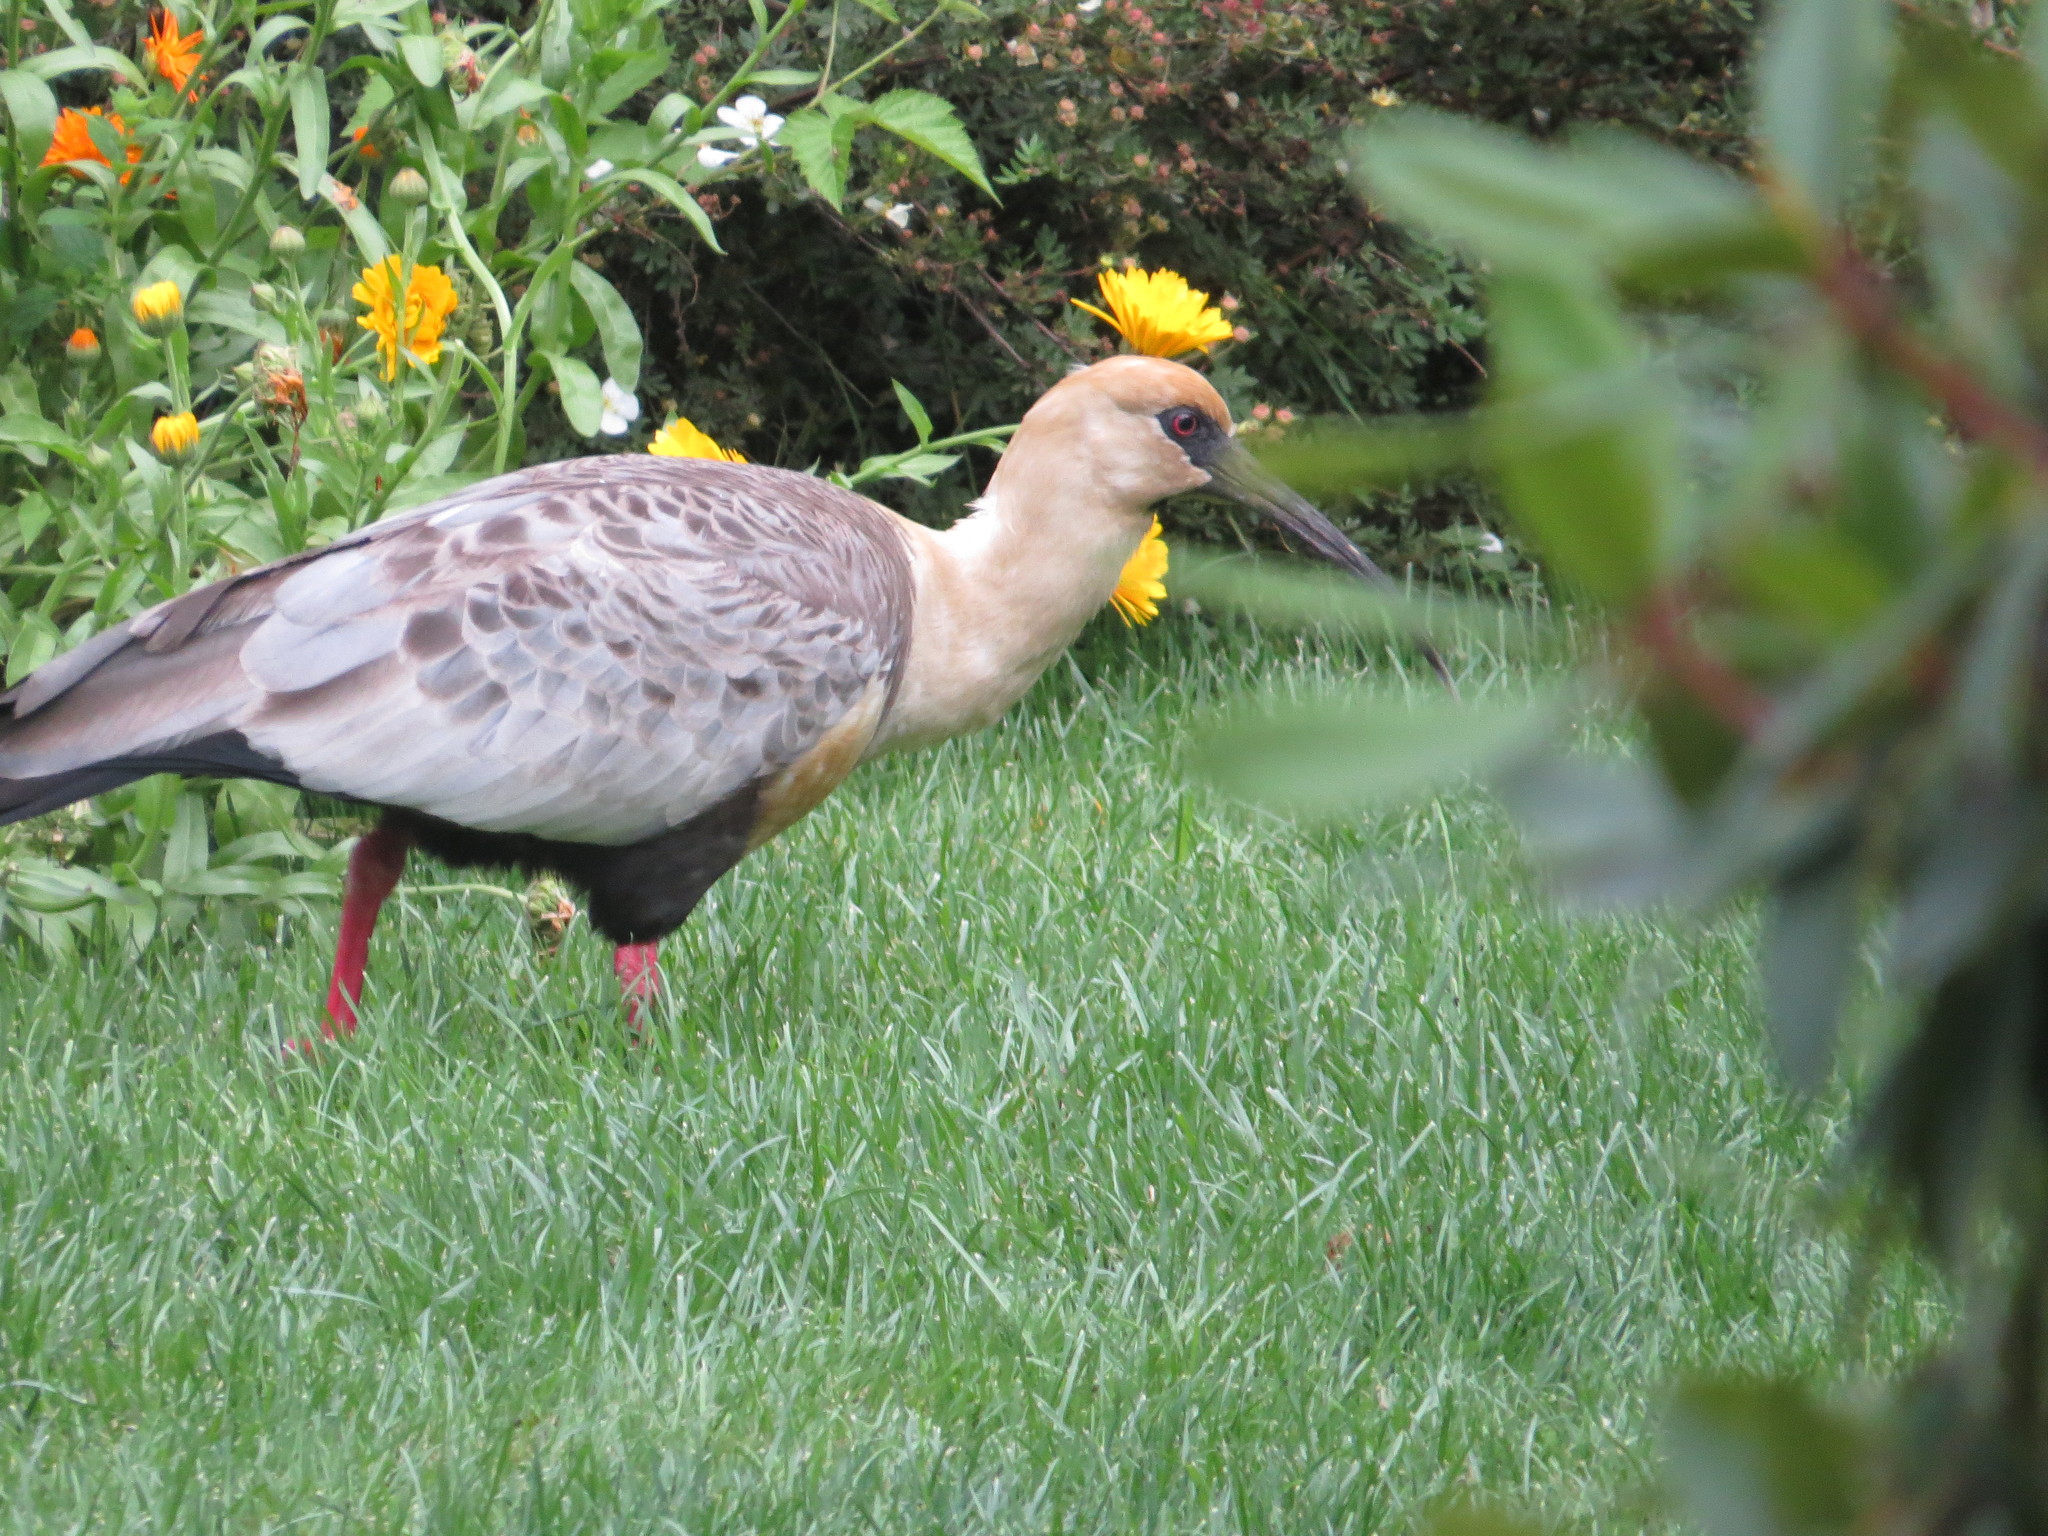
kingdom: Animalia
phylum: Chordata
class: Aves
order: Pelecaniformes
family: Threskiornithidae
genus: Theristicus
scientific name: Theristicus melanopis
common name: Black-faced ibis
